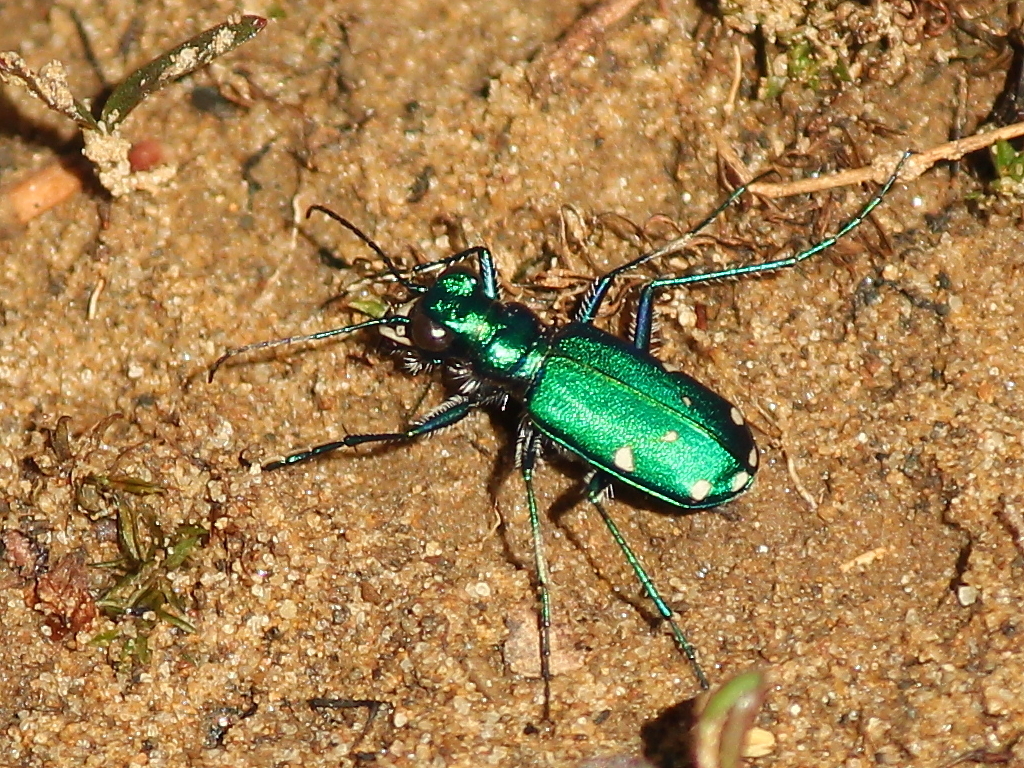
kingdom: Animalia
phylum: Arthropoda
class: Insecta
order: Coleoptera
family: Carabidae
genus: Cicindela
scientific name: Cicindela sexguttata
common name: Six-spotted tiger beetle
